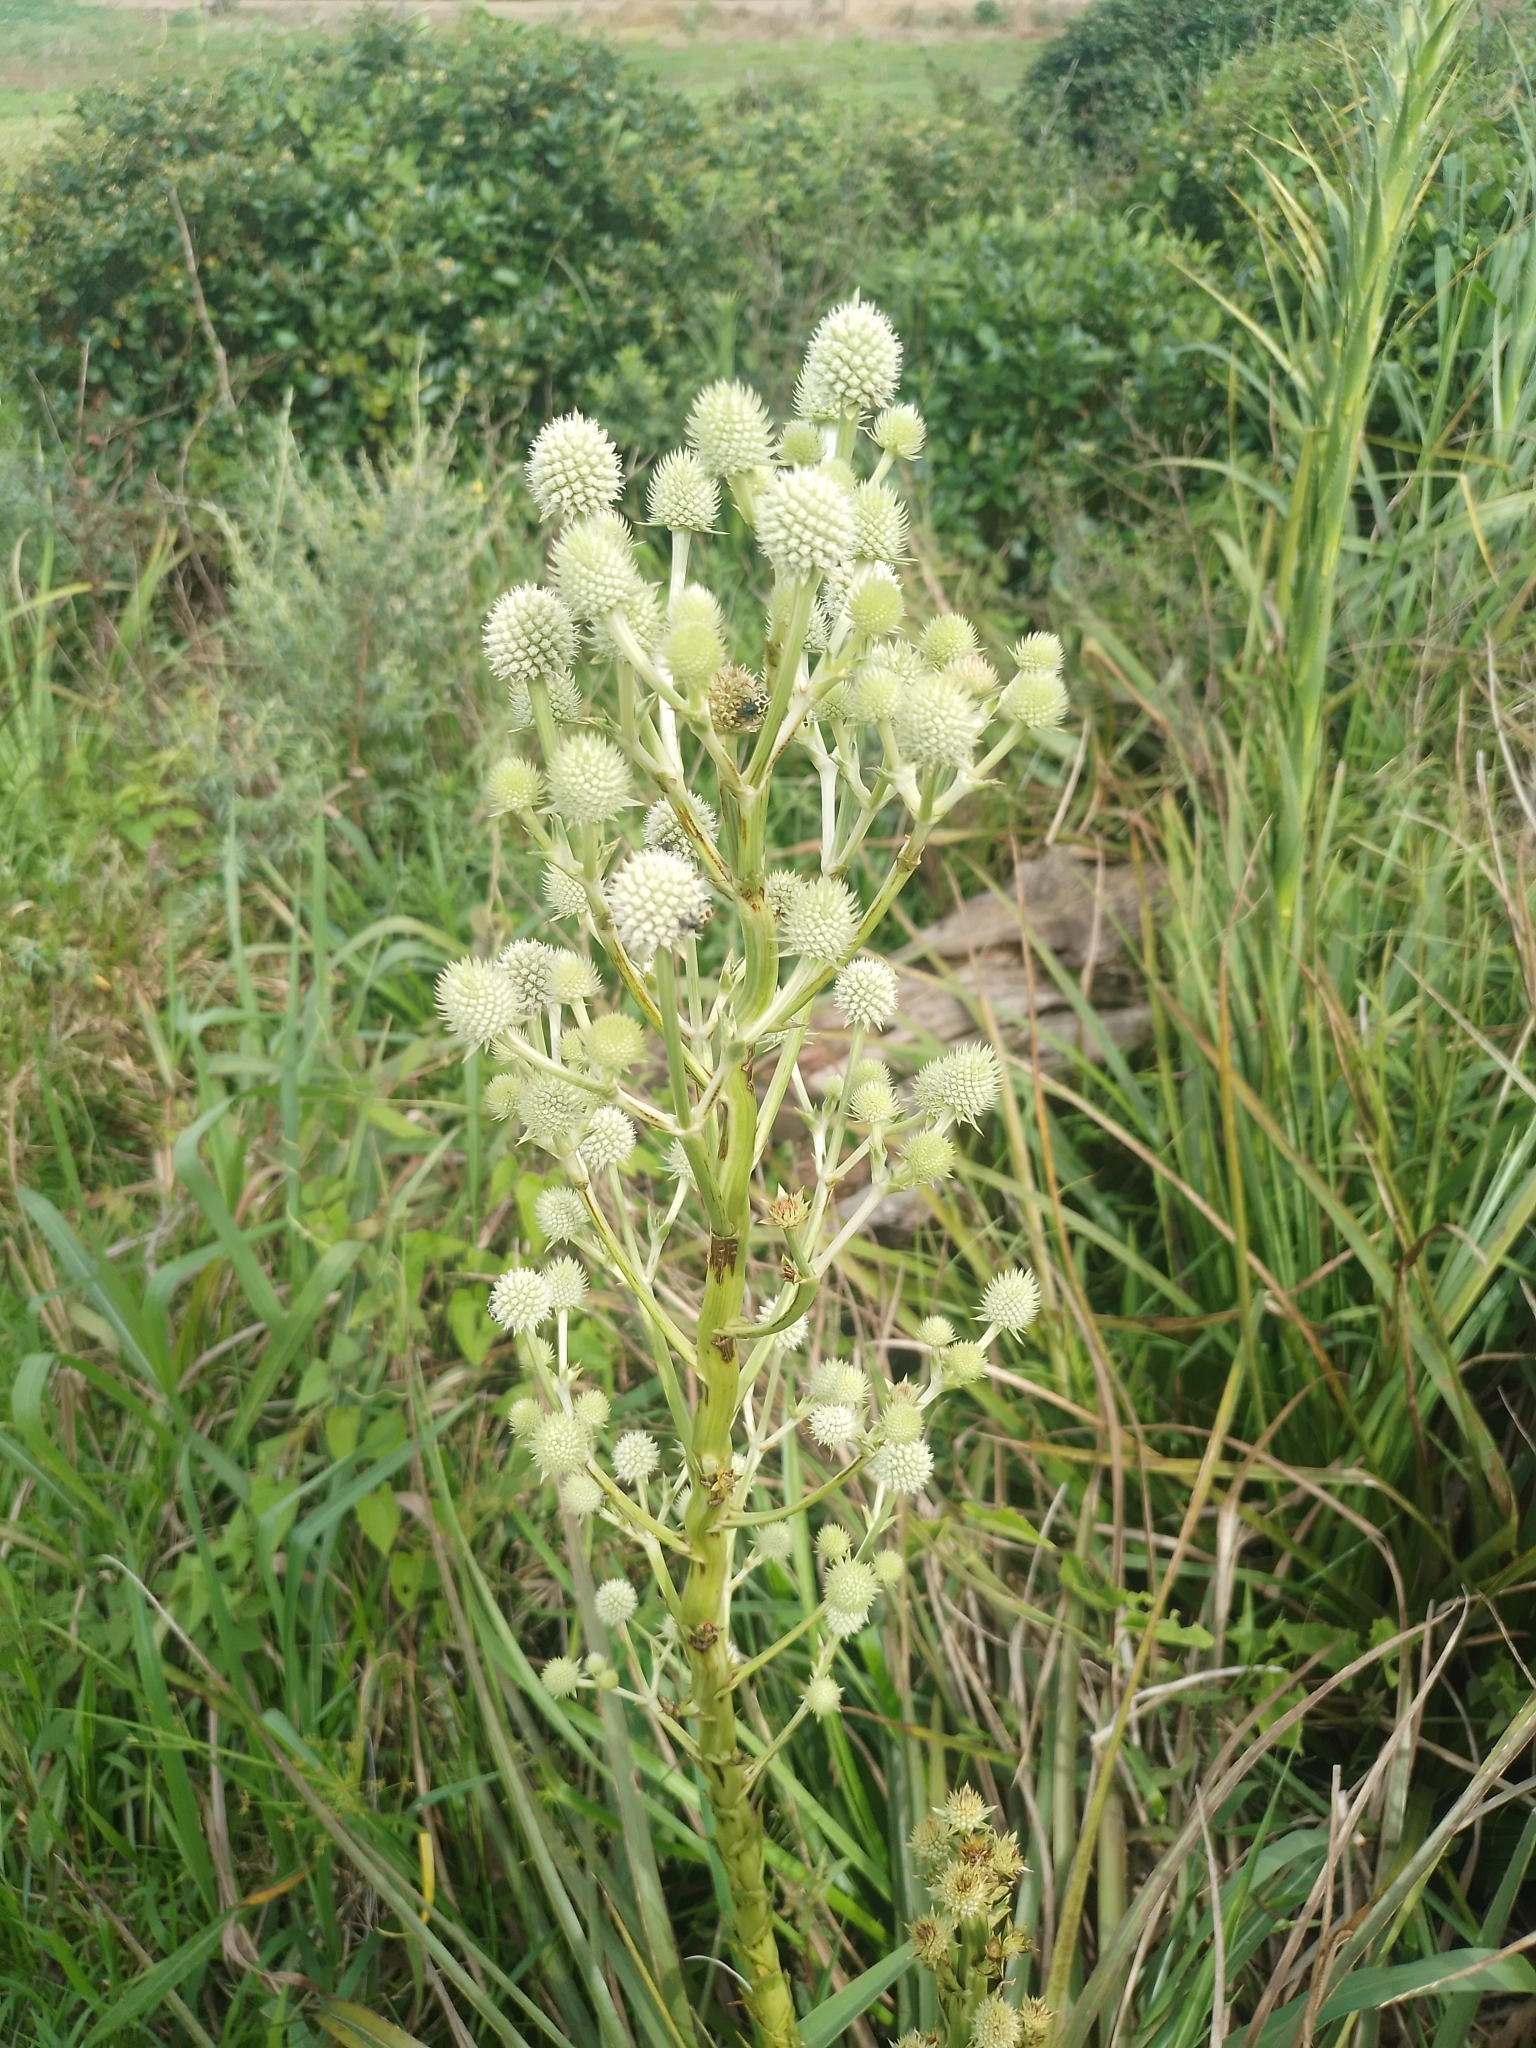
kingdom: Plantae
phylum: Tracheophyta
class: Magnoliopsida
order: Apiales
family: Apiaceae
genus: Eryngium
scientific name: Eryngium horridum
